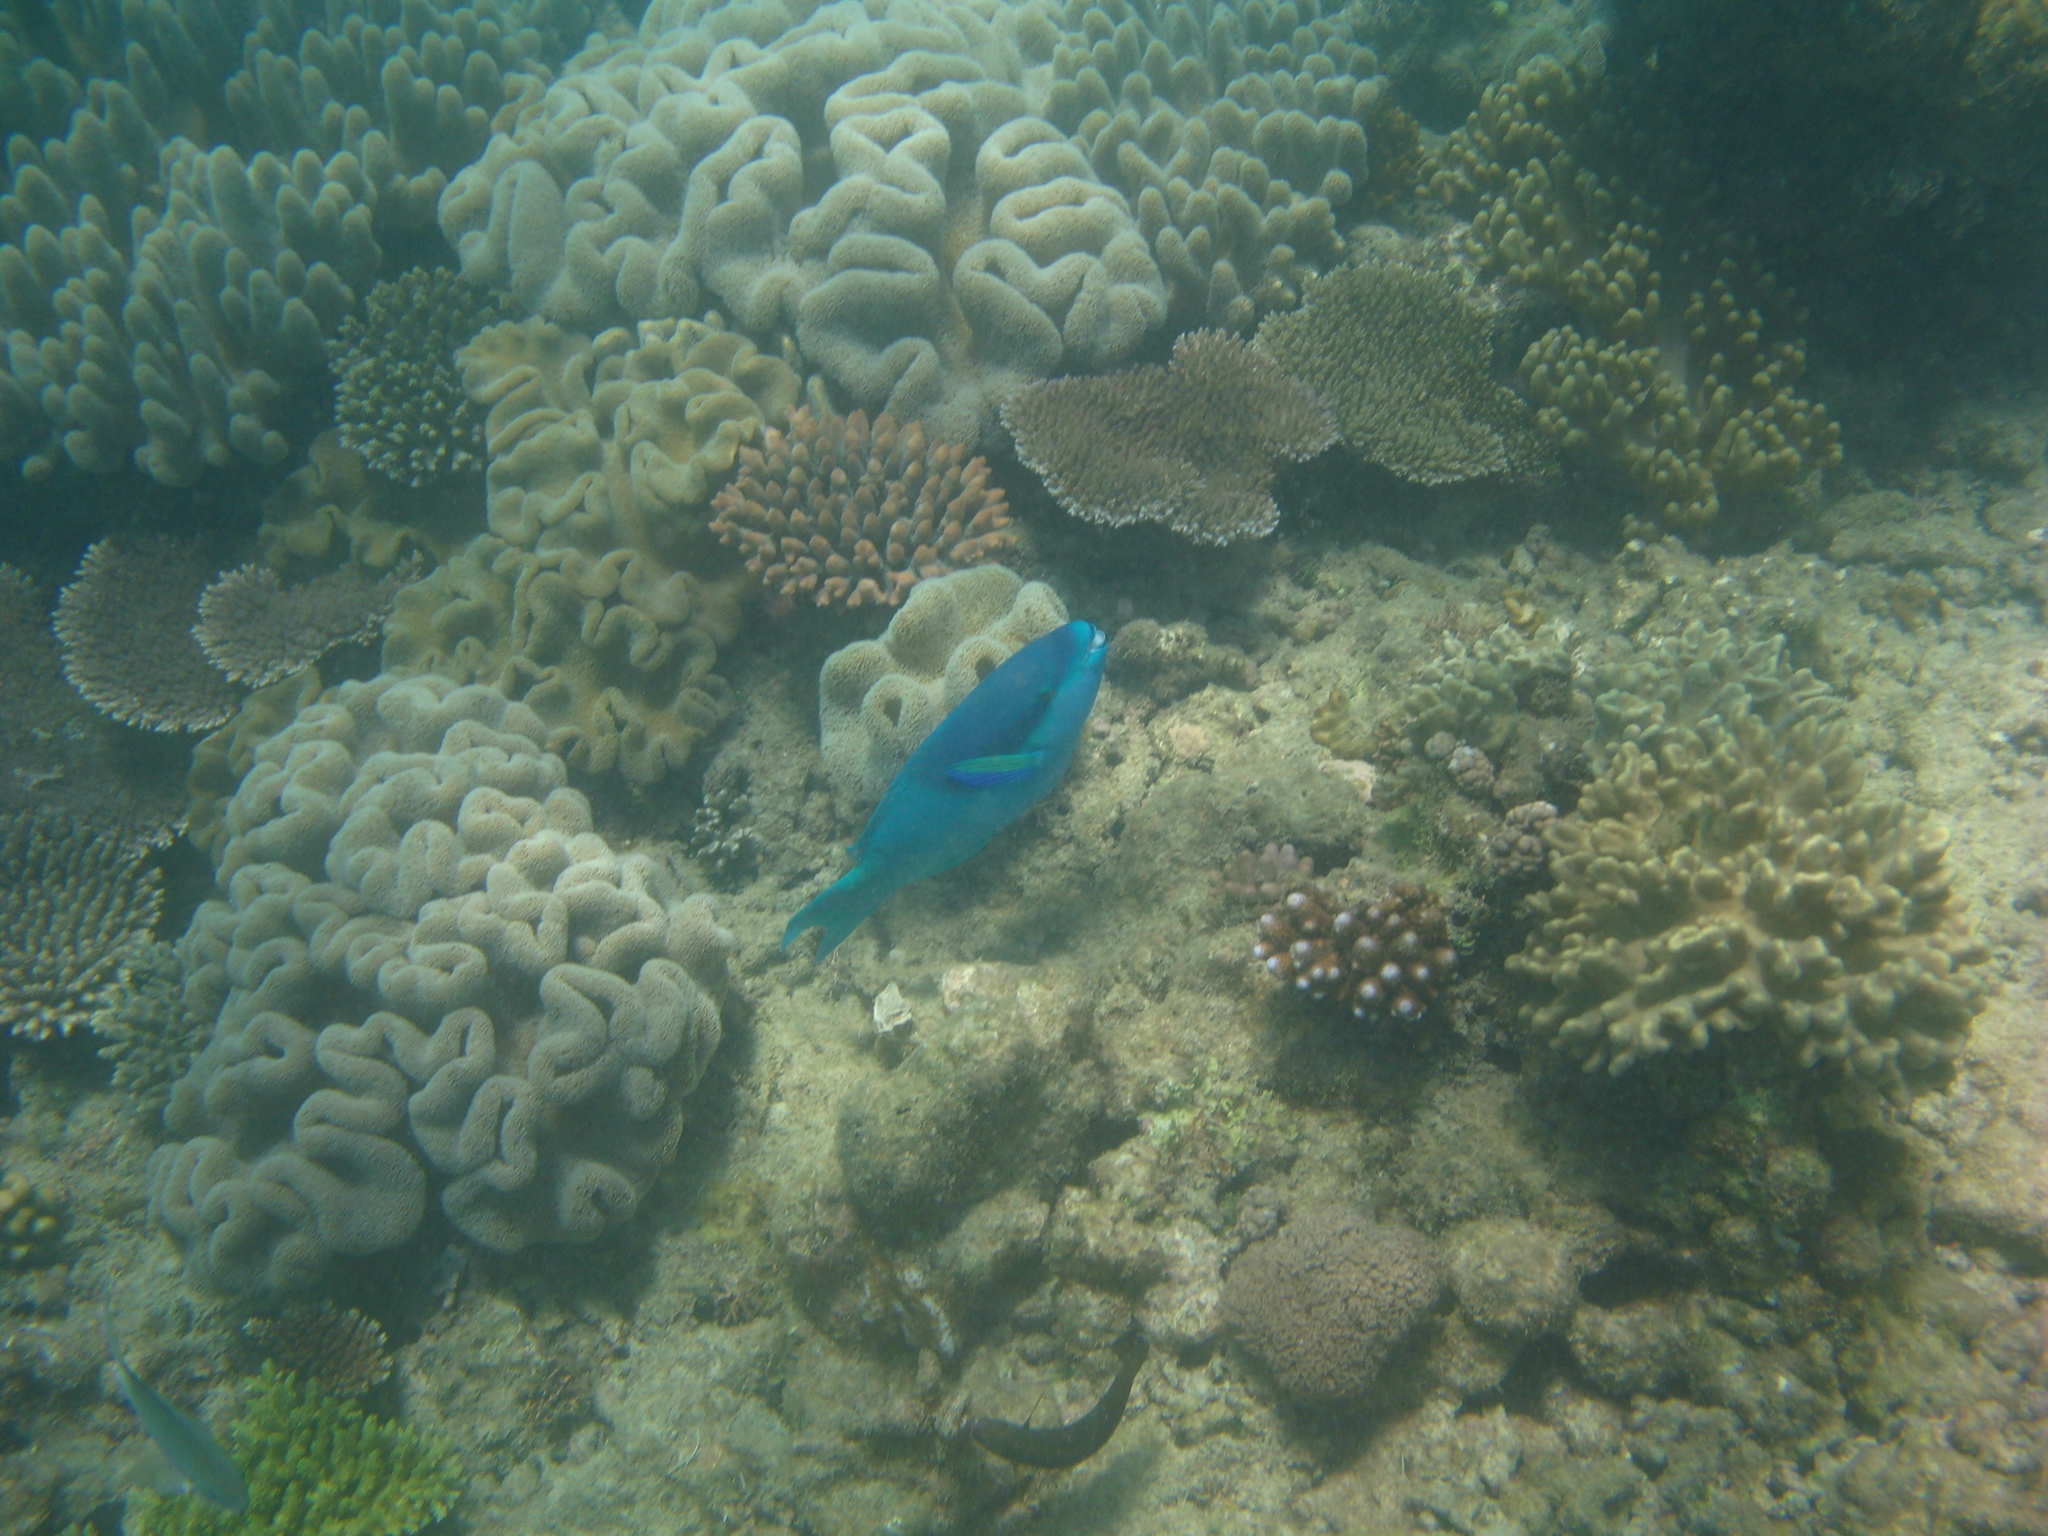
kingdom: Animalia
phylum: Chordata
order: Perciformes
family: Scaridae
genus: Scarus
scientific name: Scarus oviceps
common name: Blue parrotfish
